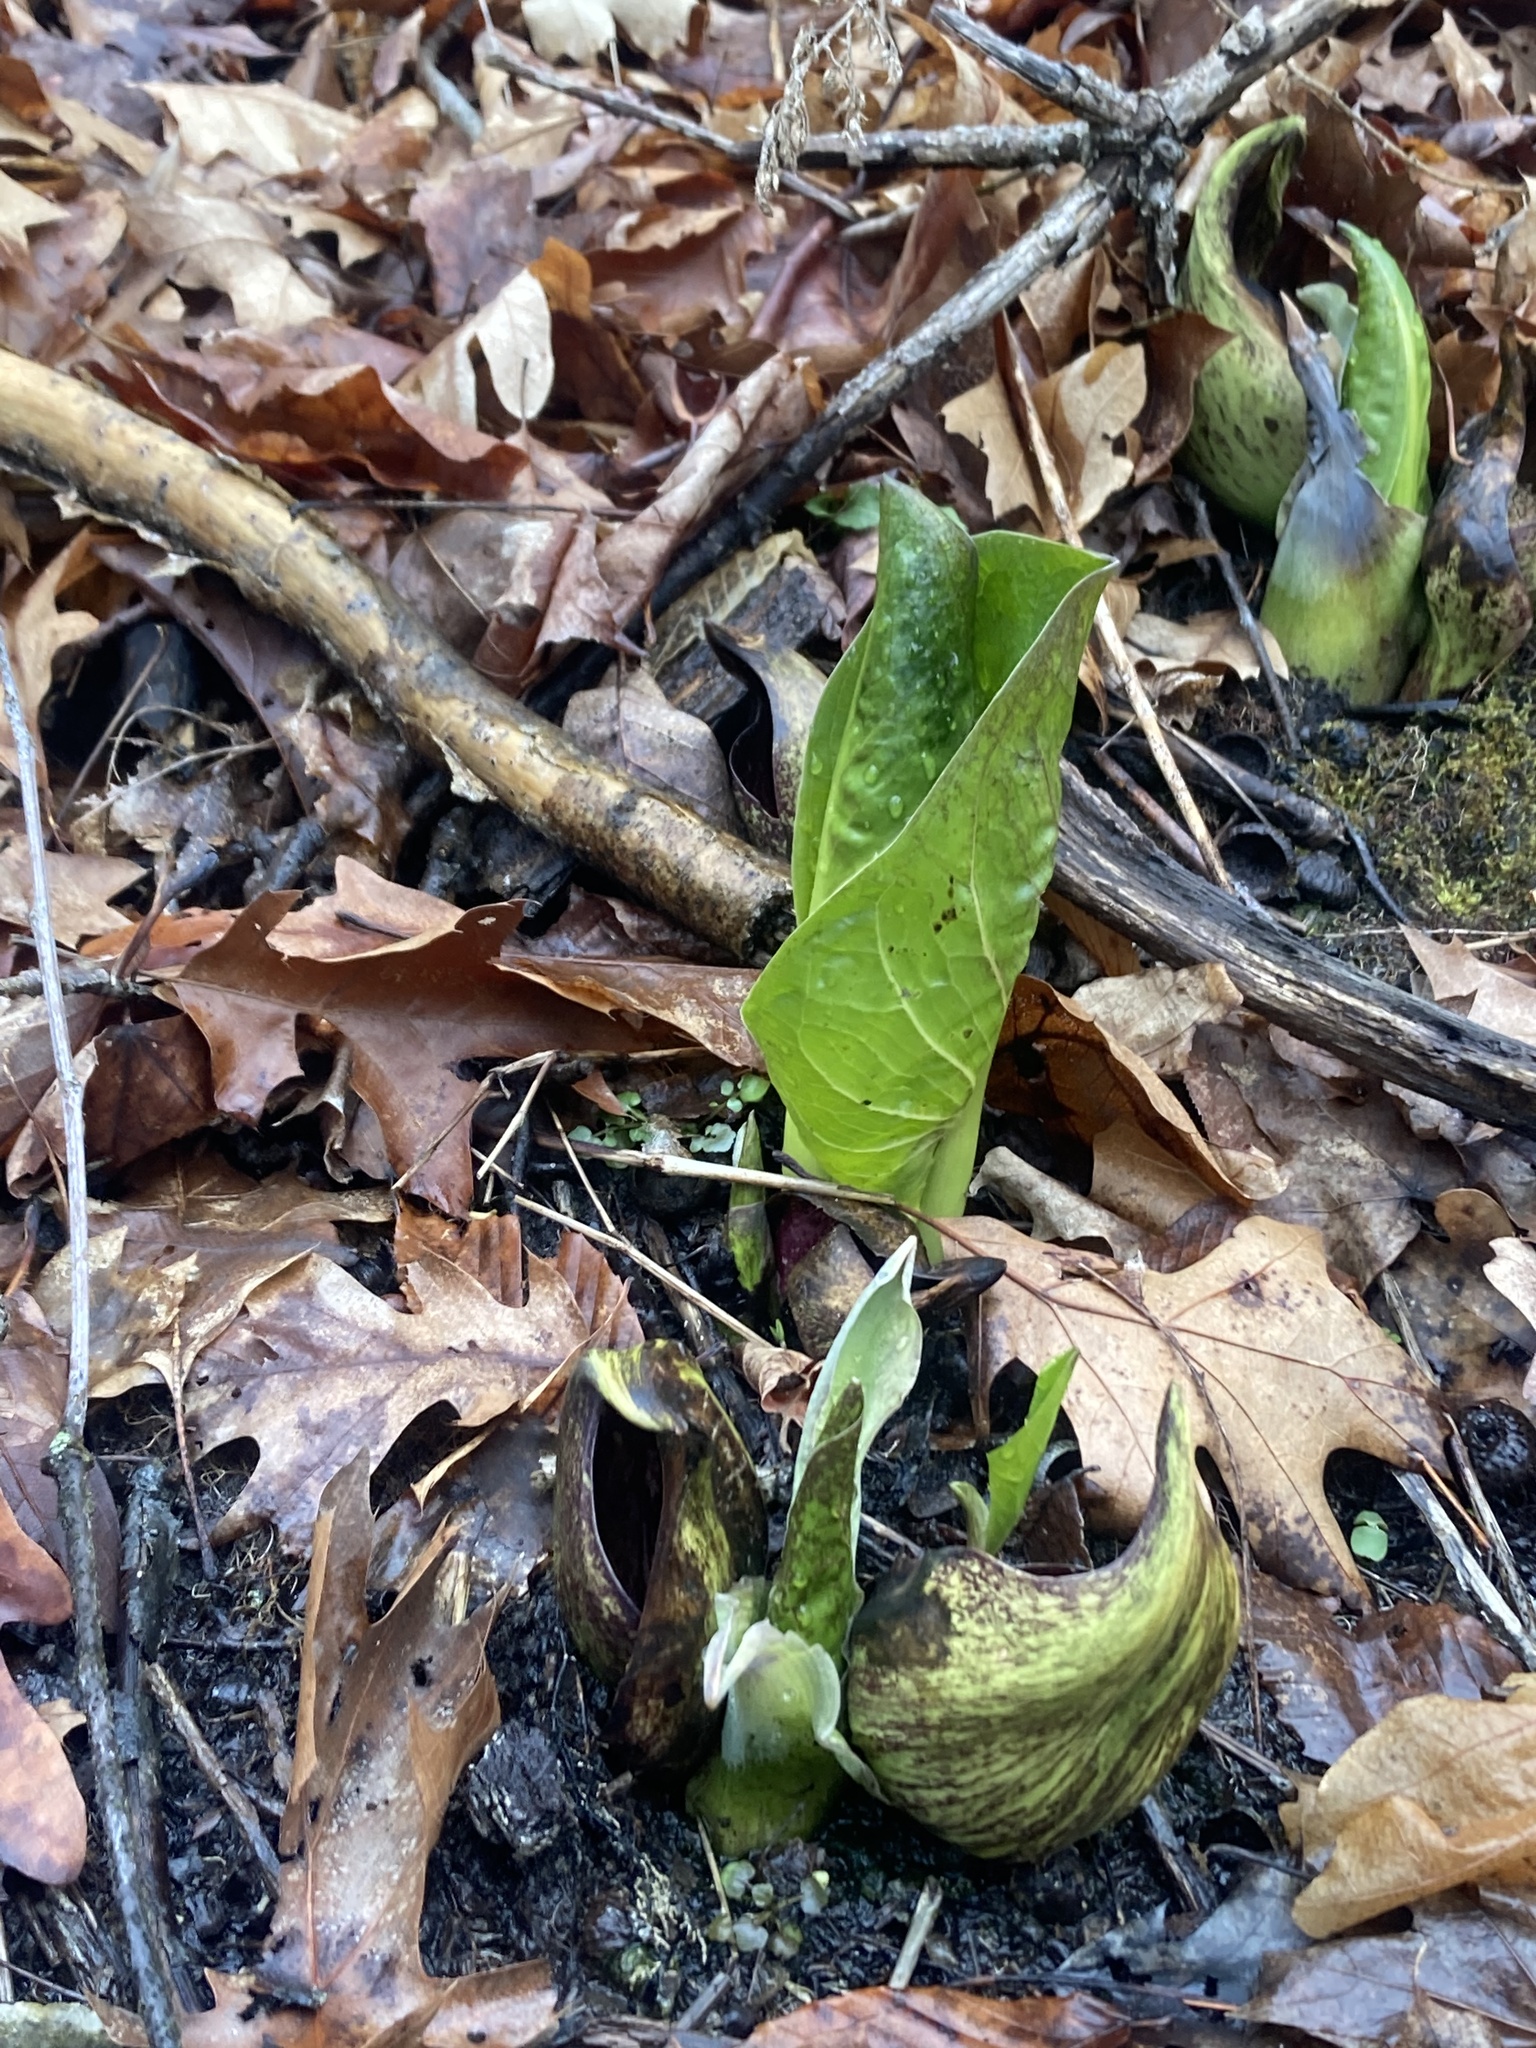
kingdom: Plantae
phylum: Tracheophyta
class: Liliopsida
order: Alismatales
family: Araceae
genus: Symplocarpus
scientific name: Symplocarpus foetidus
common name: Eastern skunk cabbage
